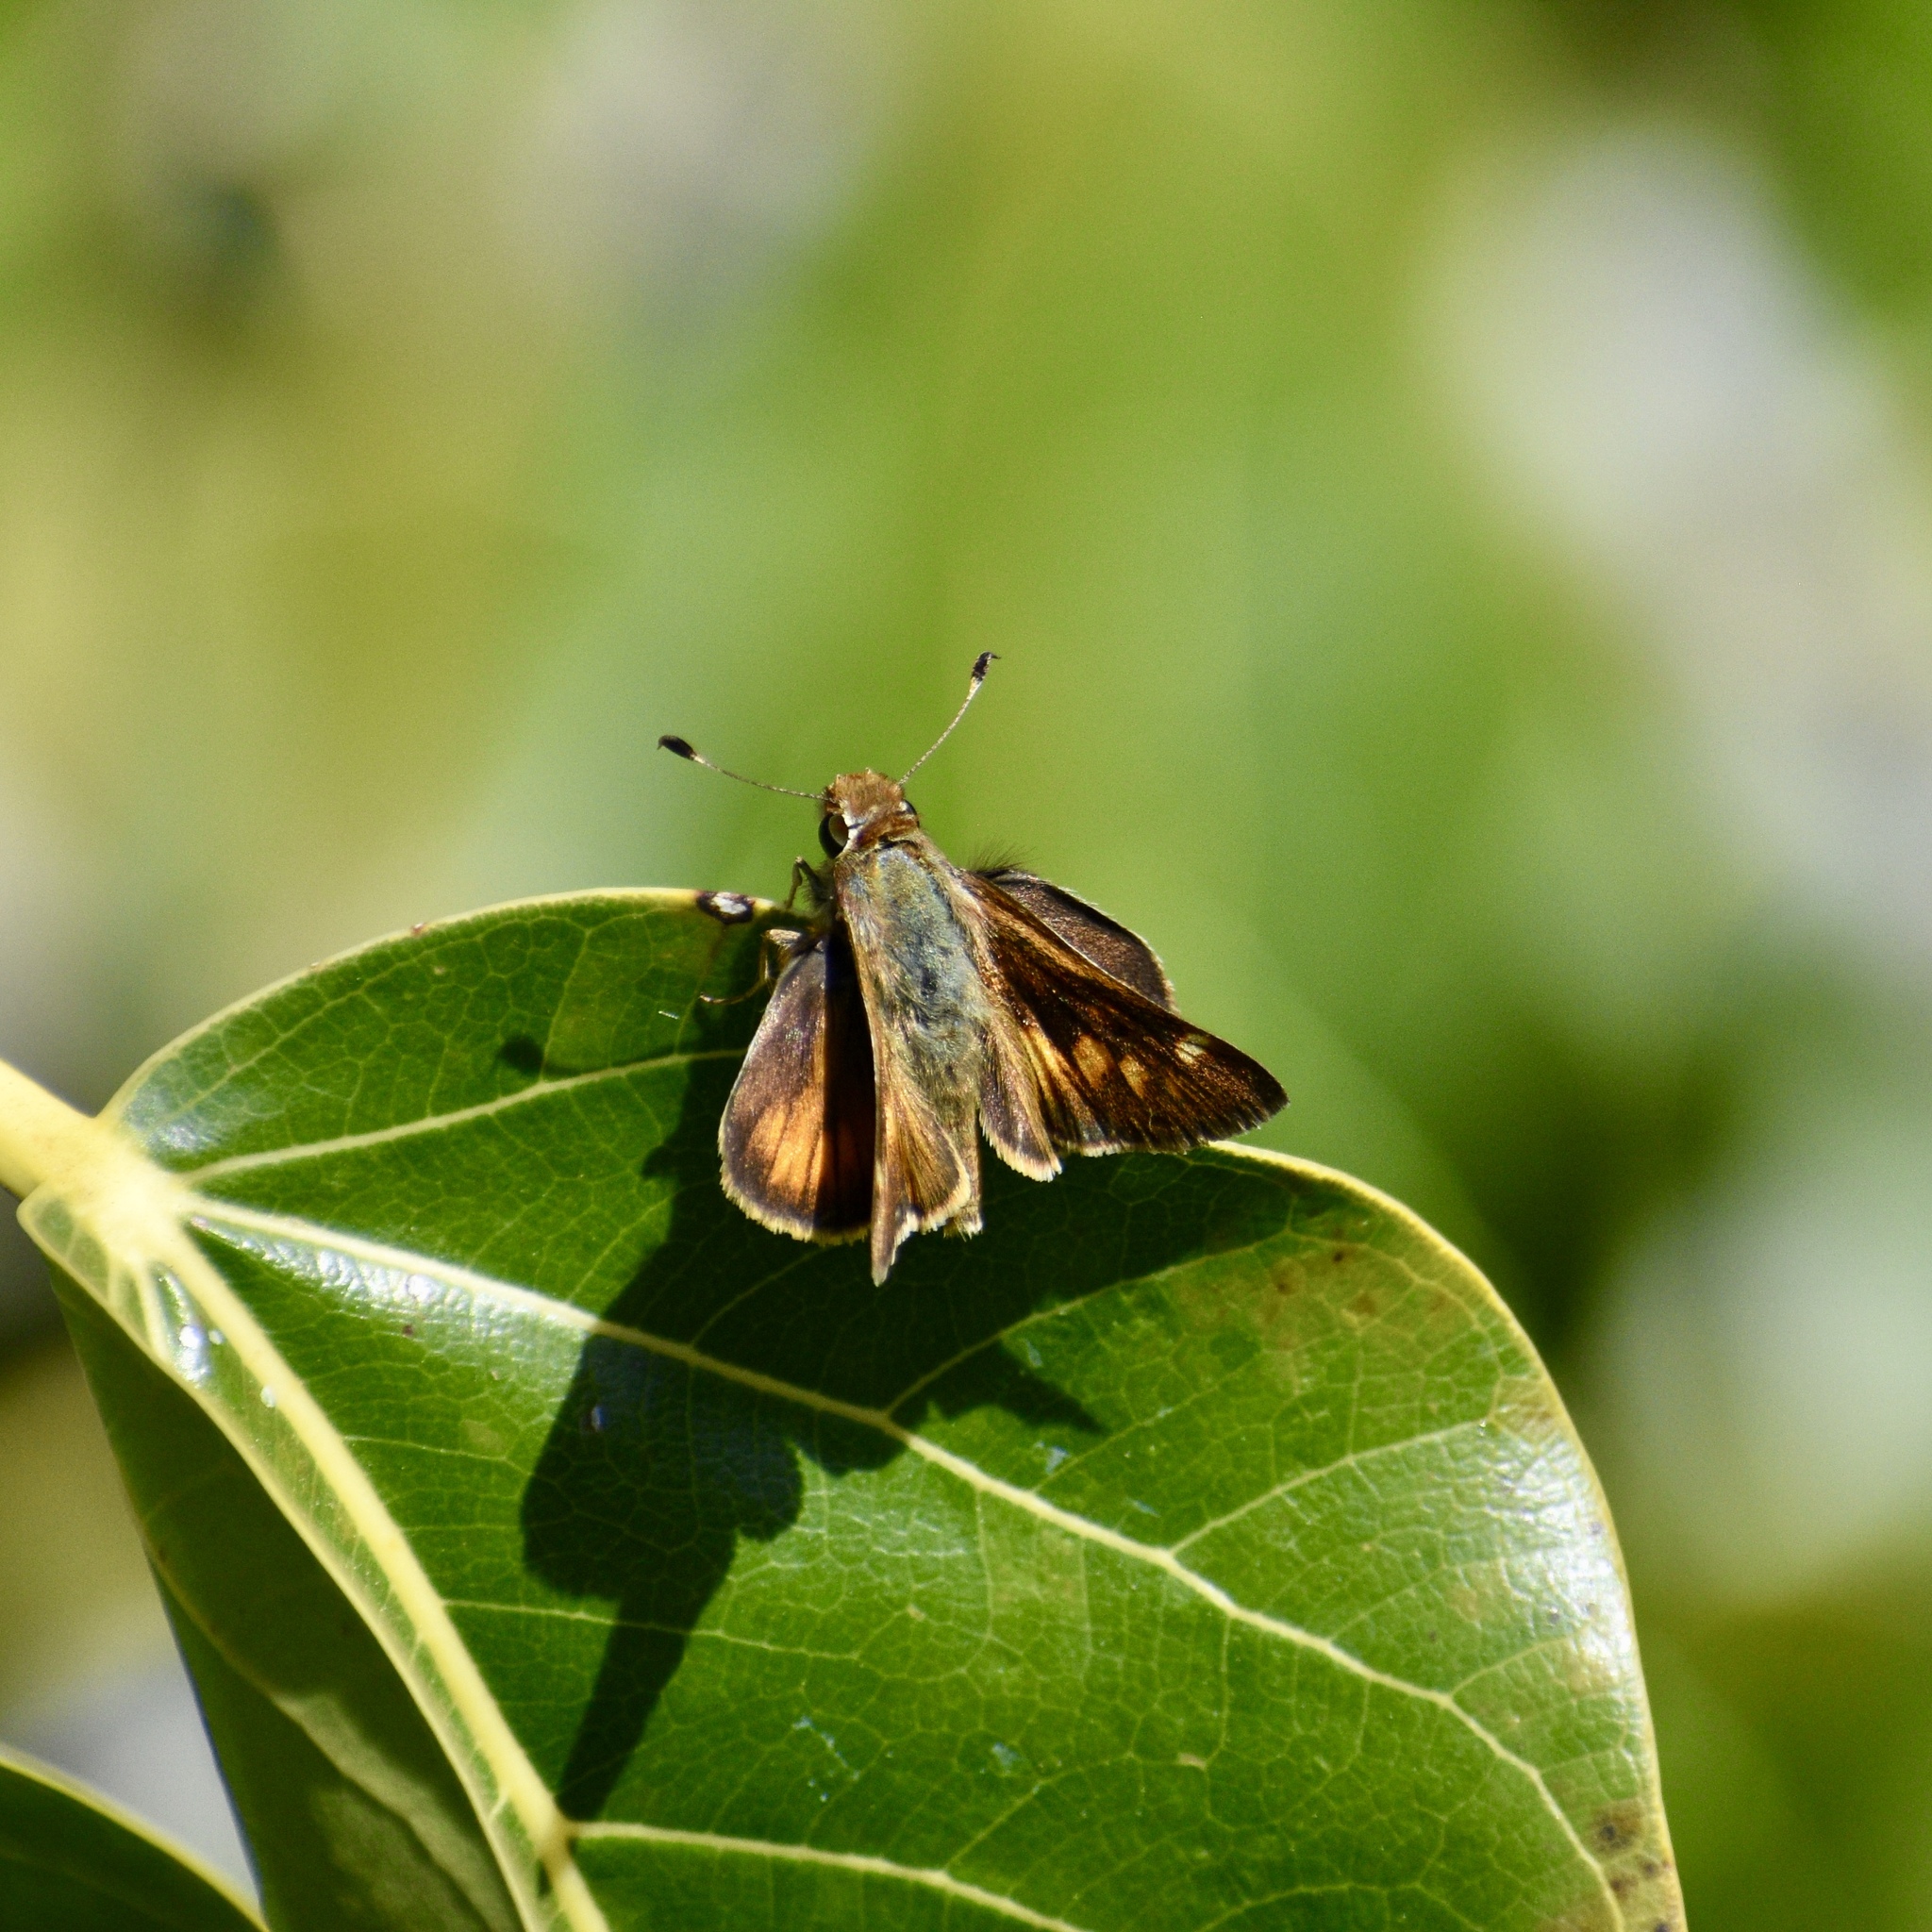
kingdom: Animalia
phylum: Arthropoda
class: Insecta
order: Lepidoptera
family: Hesperiidae
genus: Lon
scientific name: Lon melane
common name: Umber skipper
